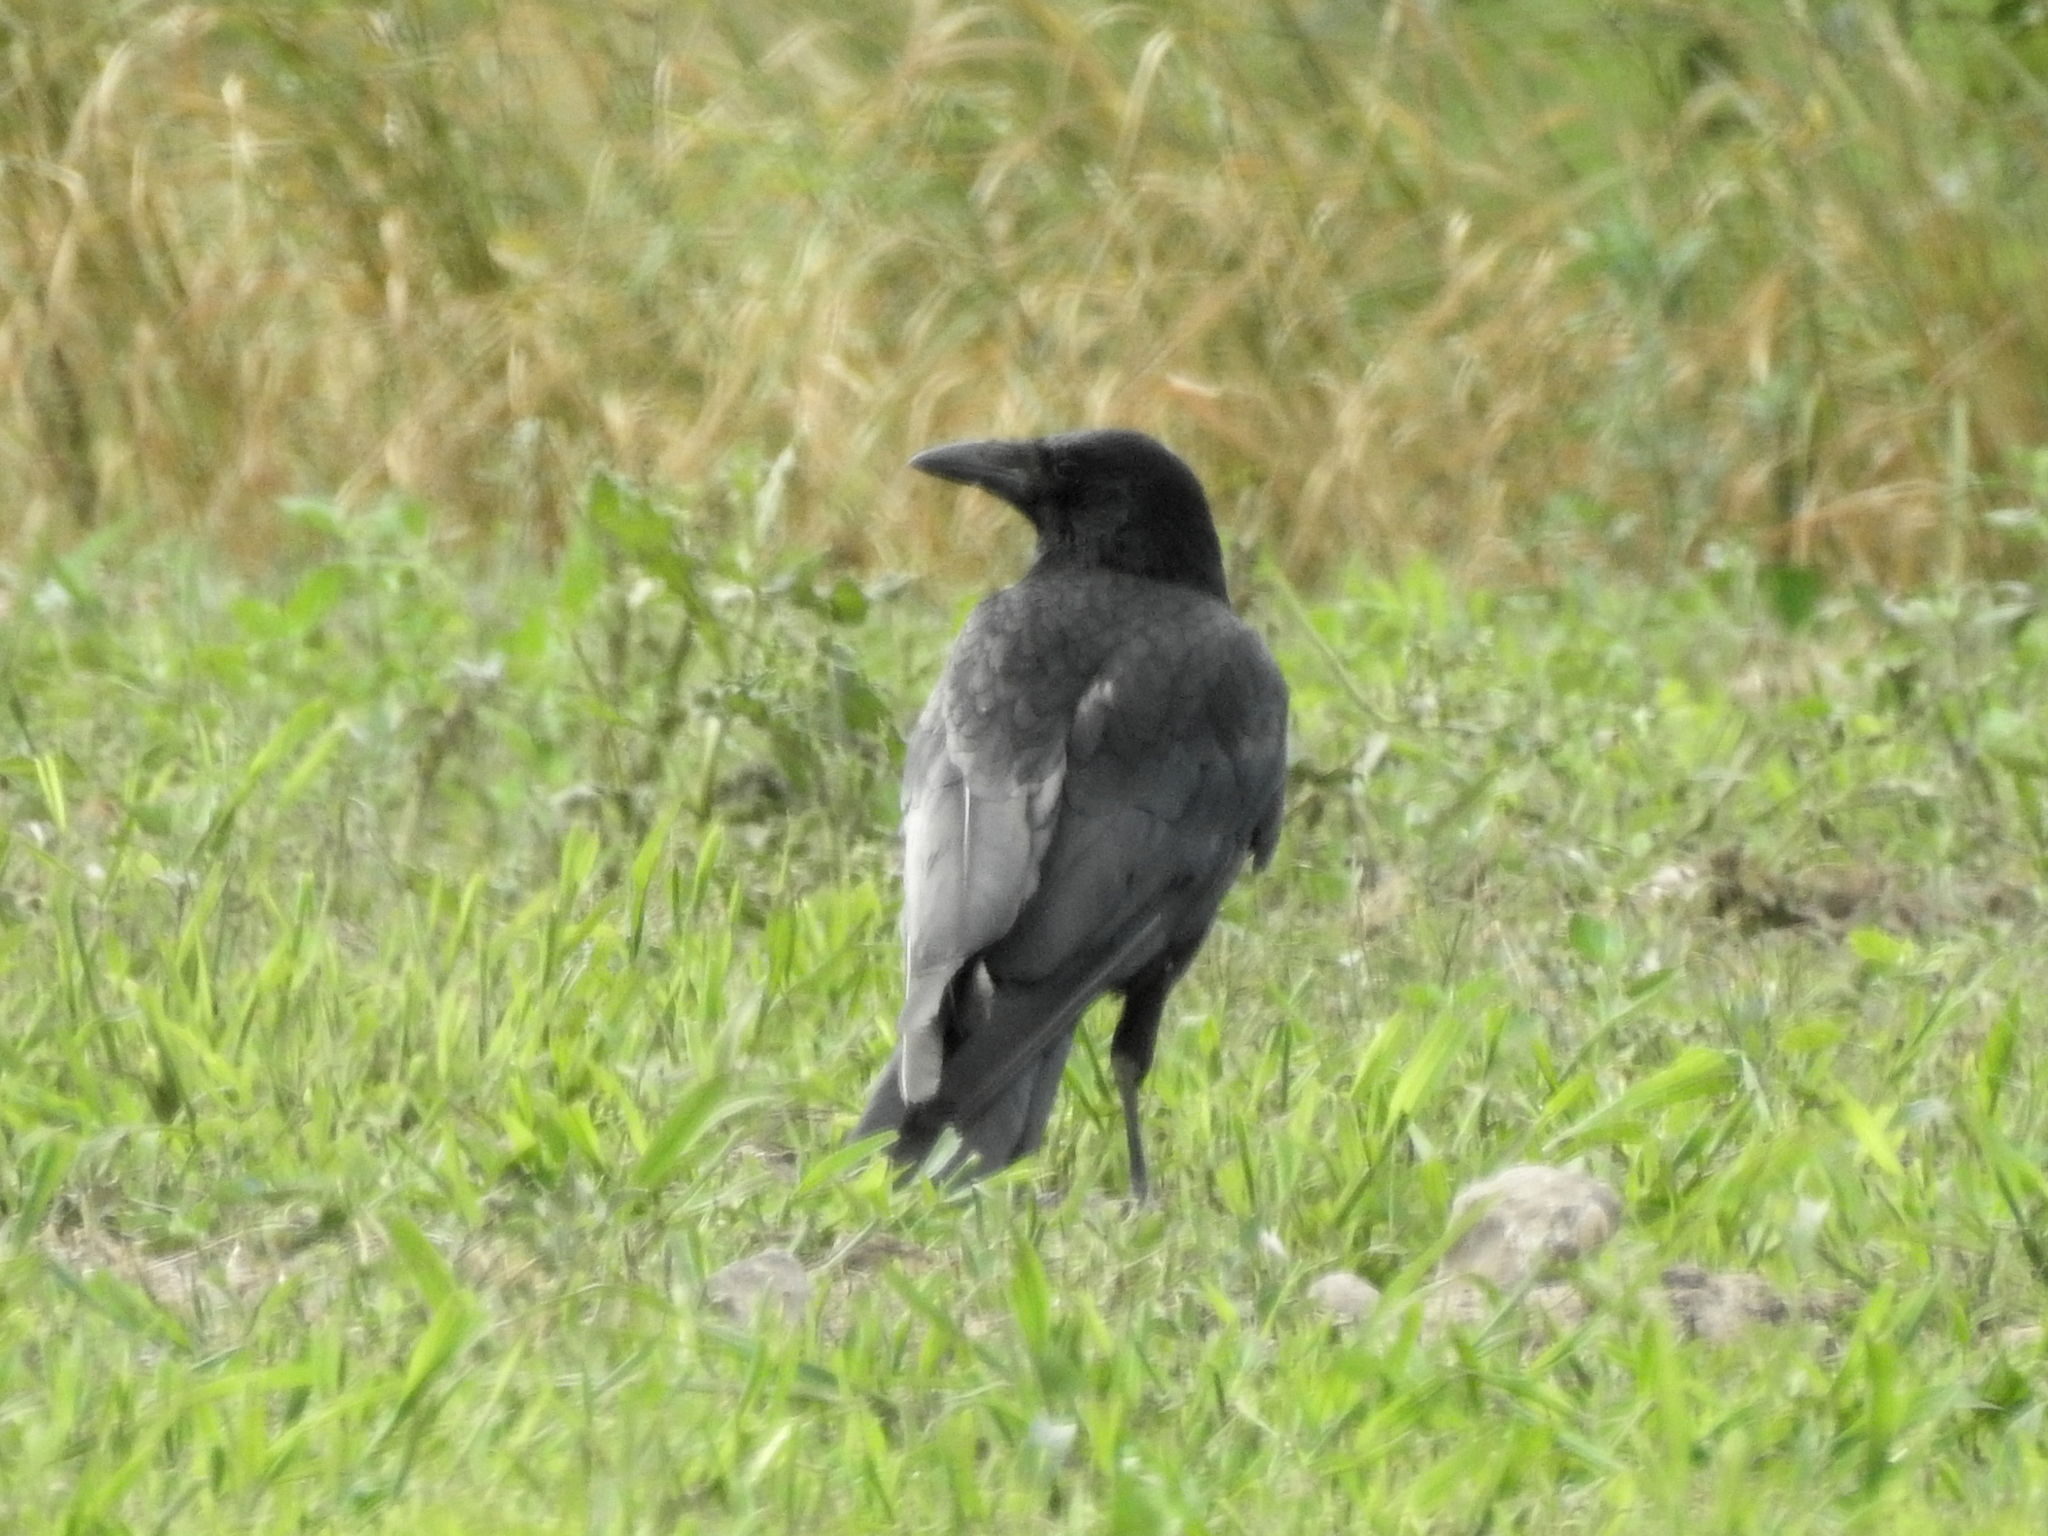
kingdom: Animalia
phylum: Chordata
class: Aves
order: Passeriformes
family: Corvidae
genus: Corvus
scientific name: Corvus corone
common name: Carrion crow
